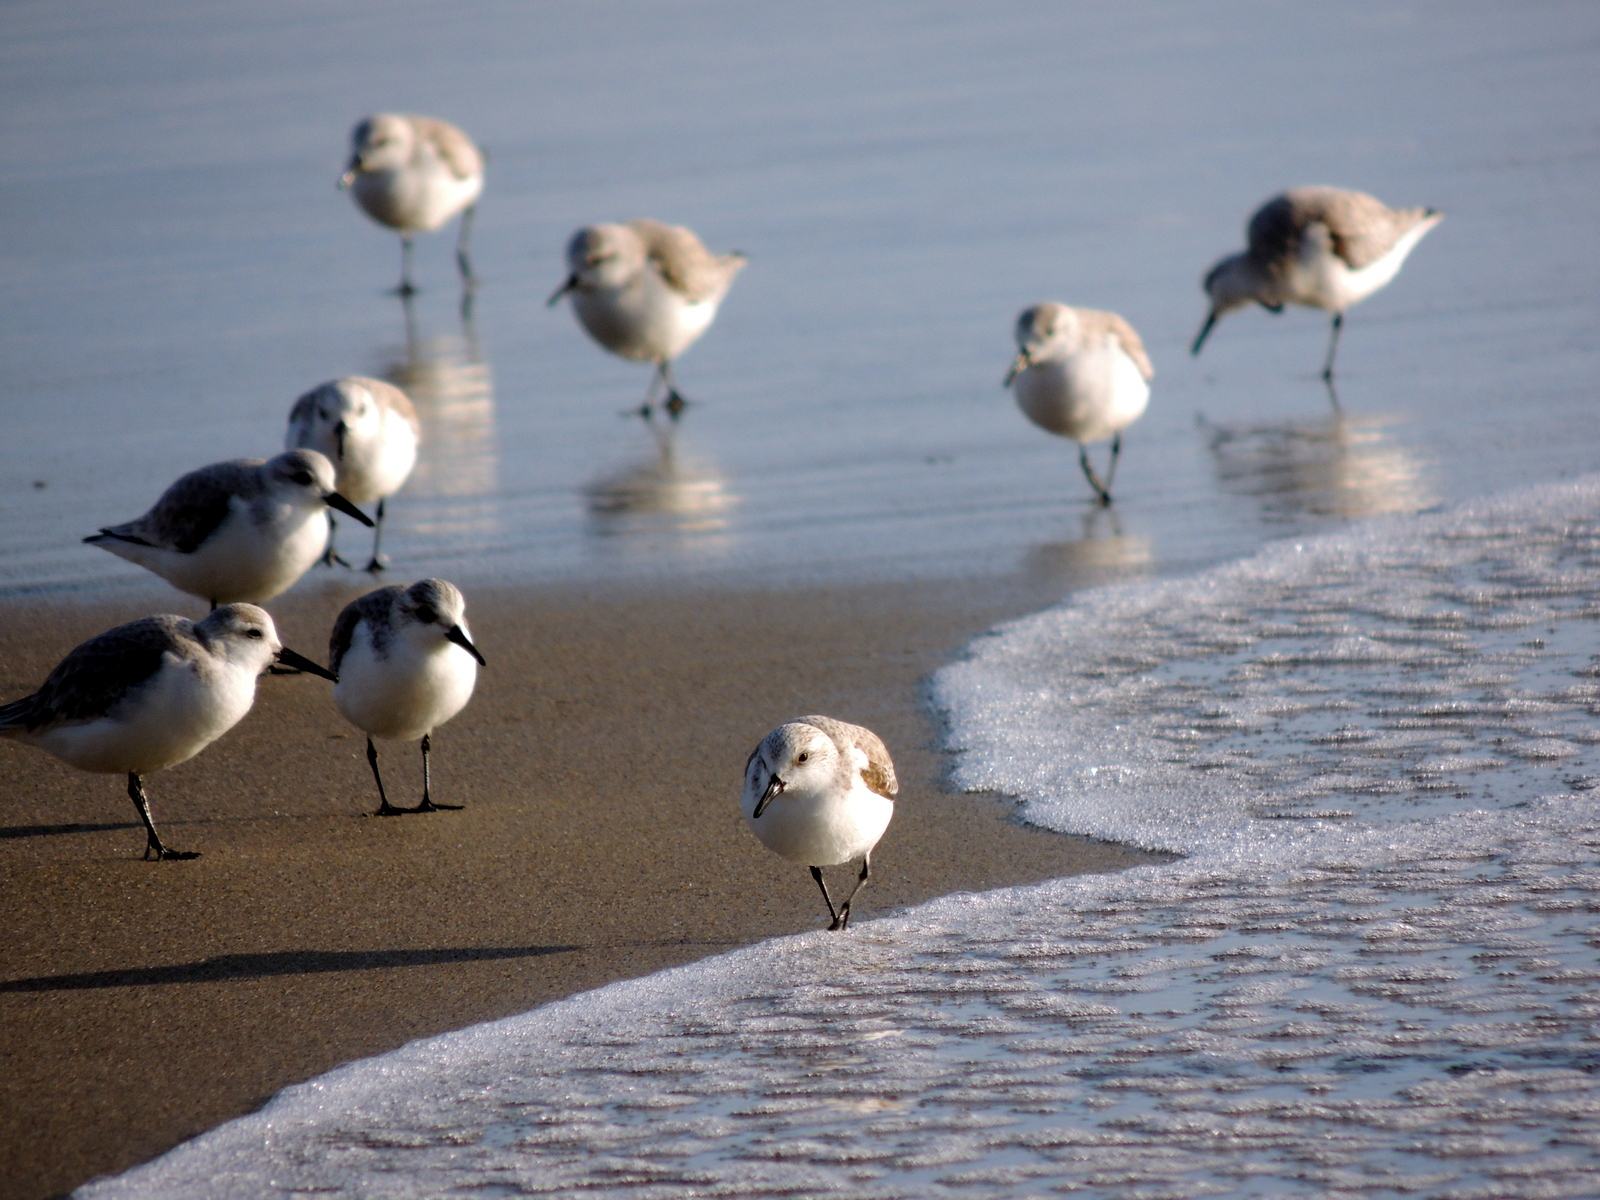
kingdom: Animalia
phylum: Chordata
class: Aves
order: Charadriiformes
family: Scolopacidae
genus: Calidris
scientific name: Calidris alba
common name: Sanderling
